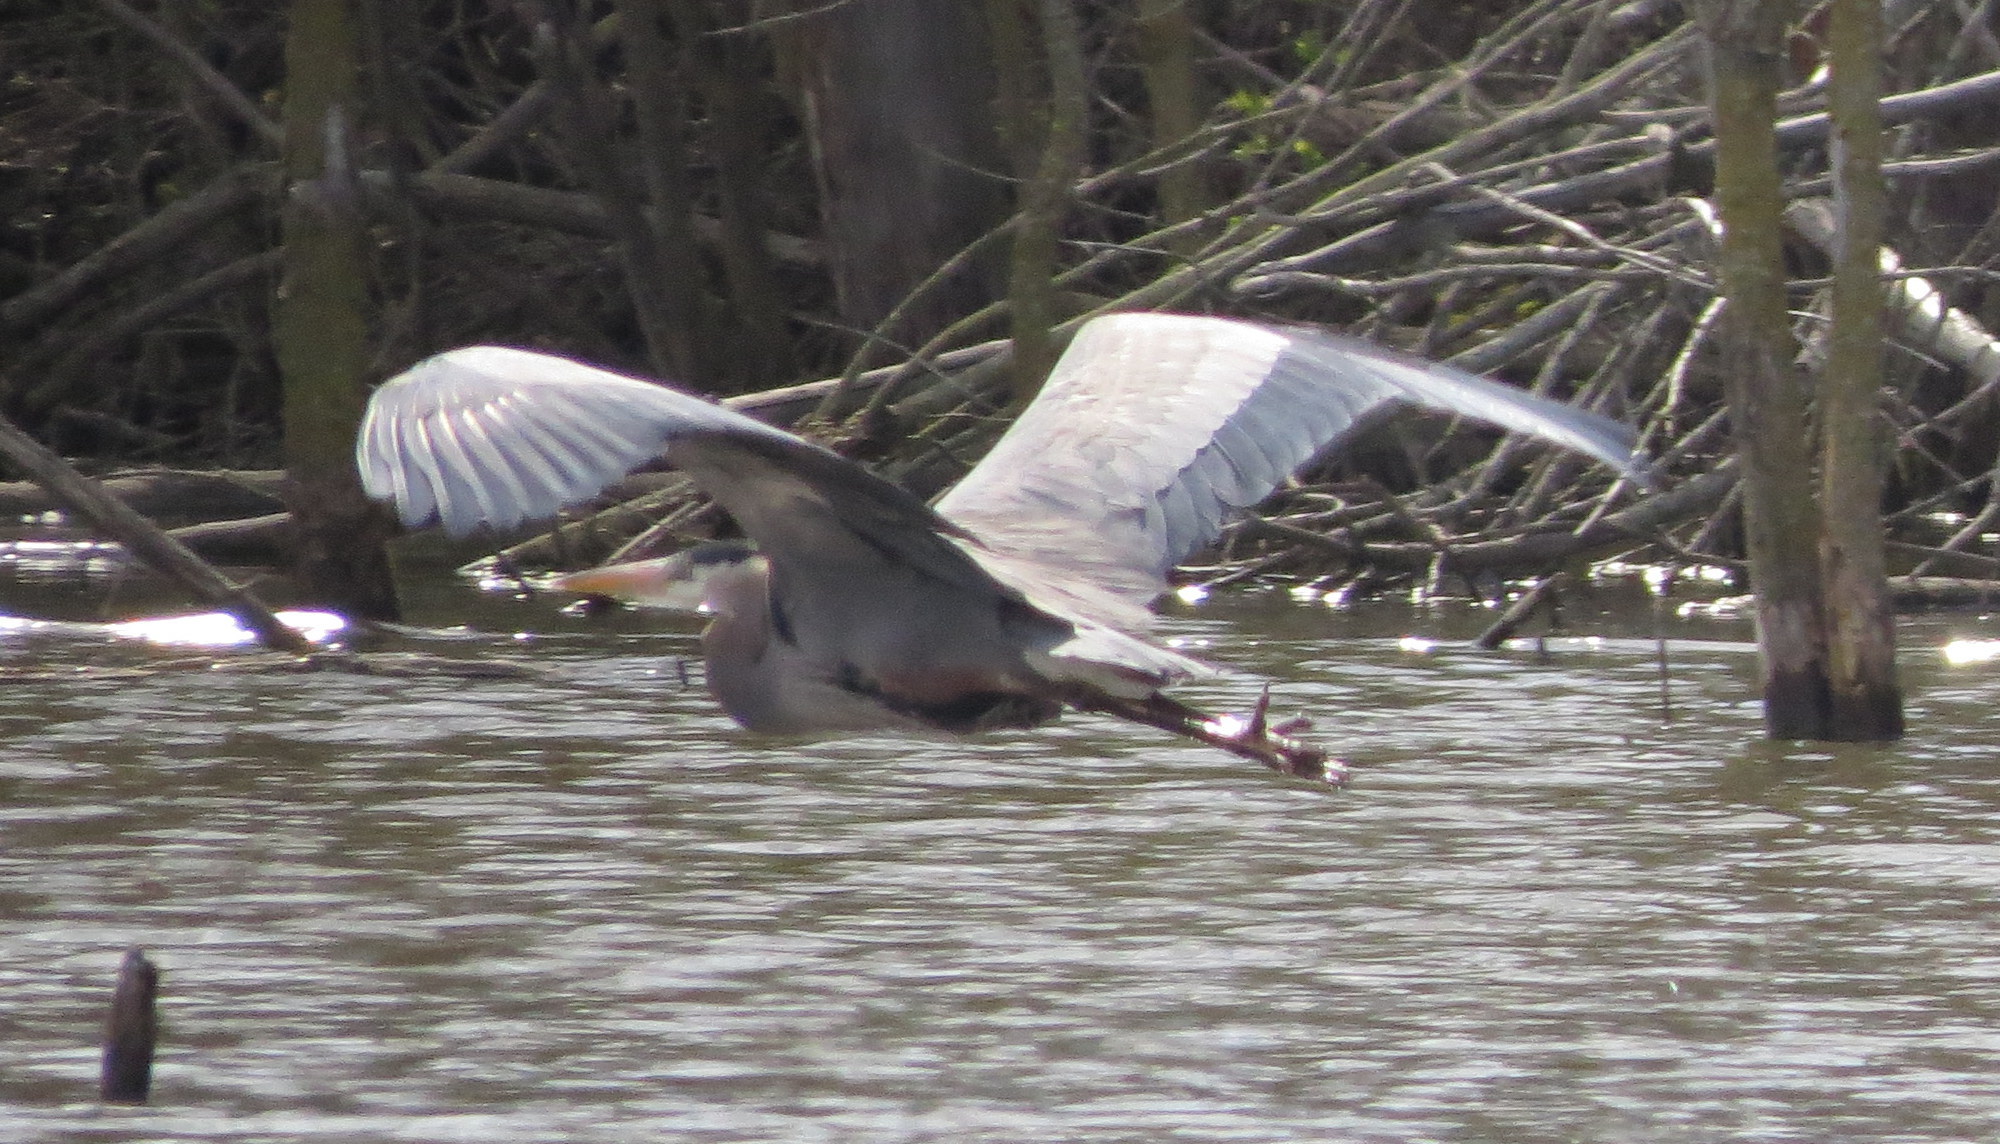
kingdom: Animalia
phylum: Chordata
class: Aves
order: Pelecaniformes
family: Ardeidae
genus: Ardea
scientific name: Ardea herodias
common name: Great blue heron
